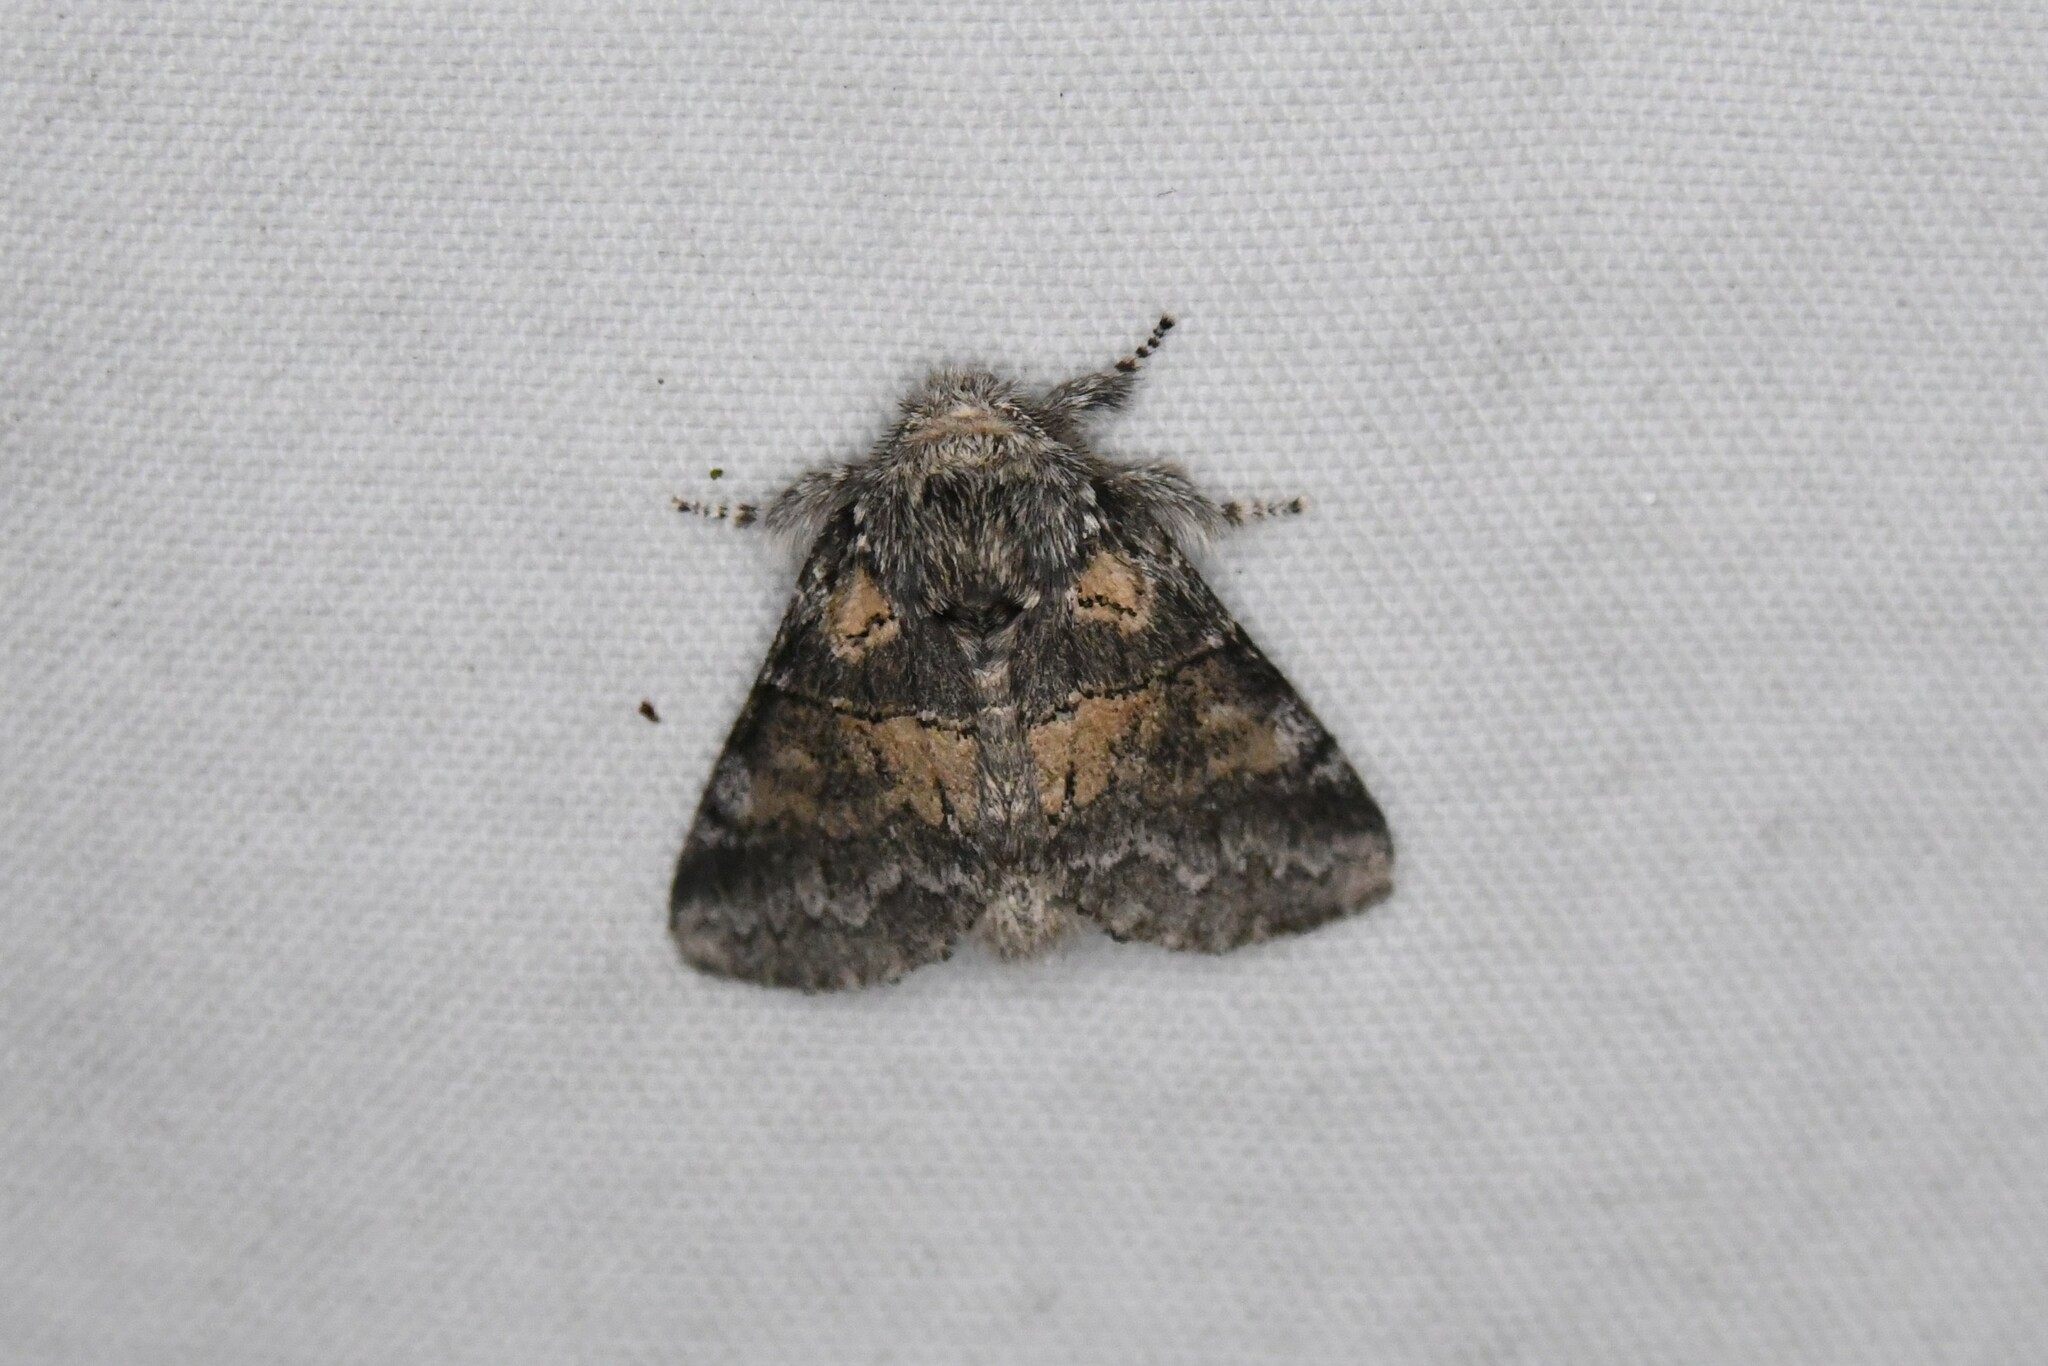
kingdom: Animalia
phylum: Arthropoda
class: Insecta
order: Lepidoptera
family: Notodontidae
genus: Gluphisia
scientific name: Gluphisia septentrionis
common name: Common gluphisia
